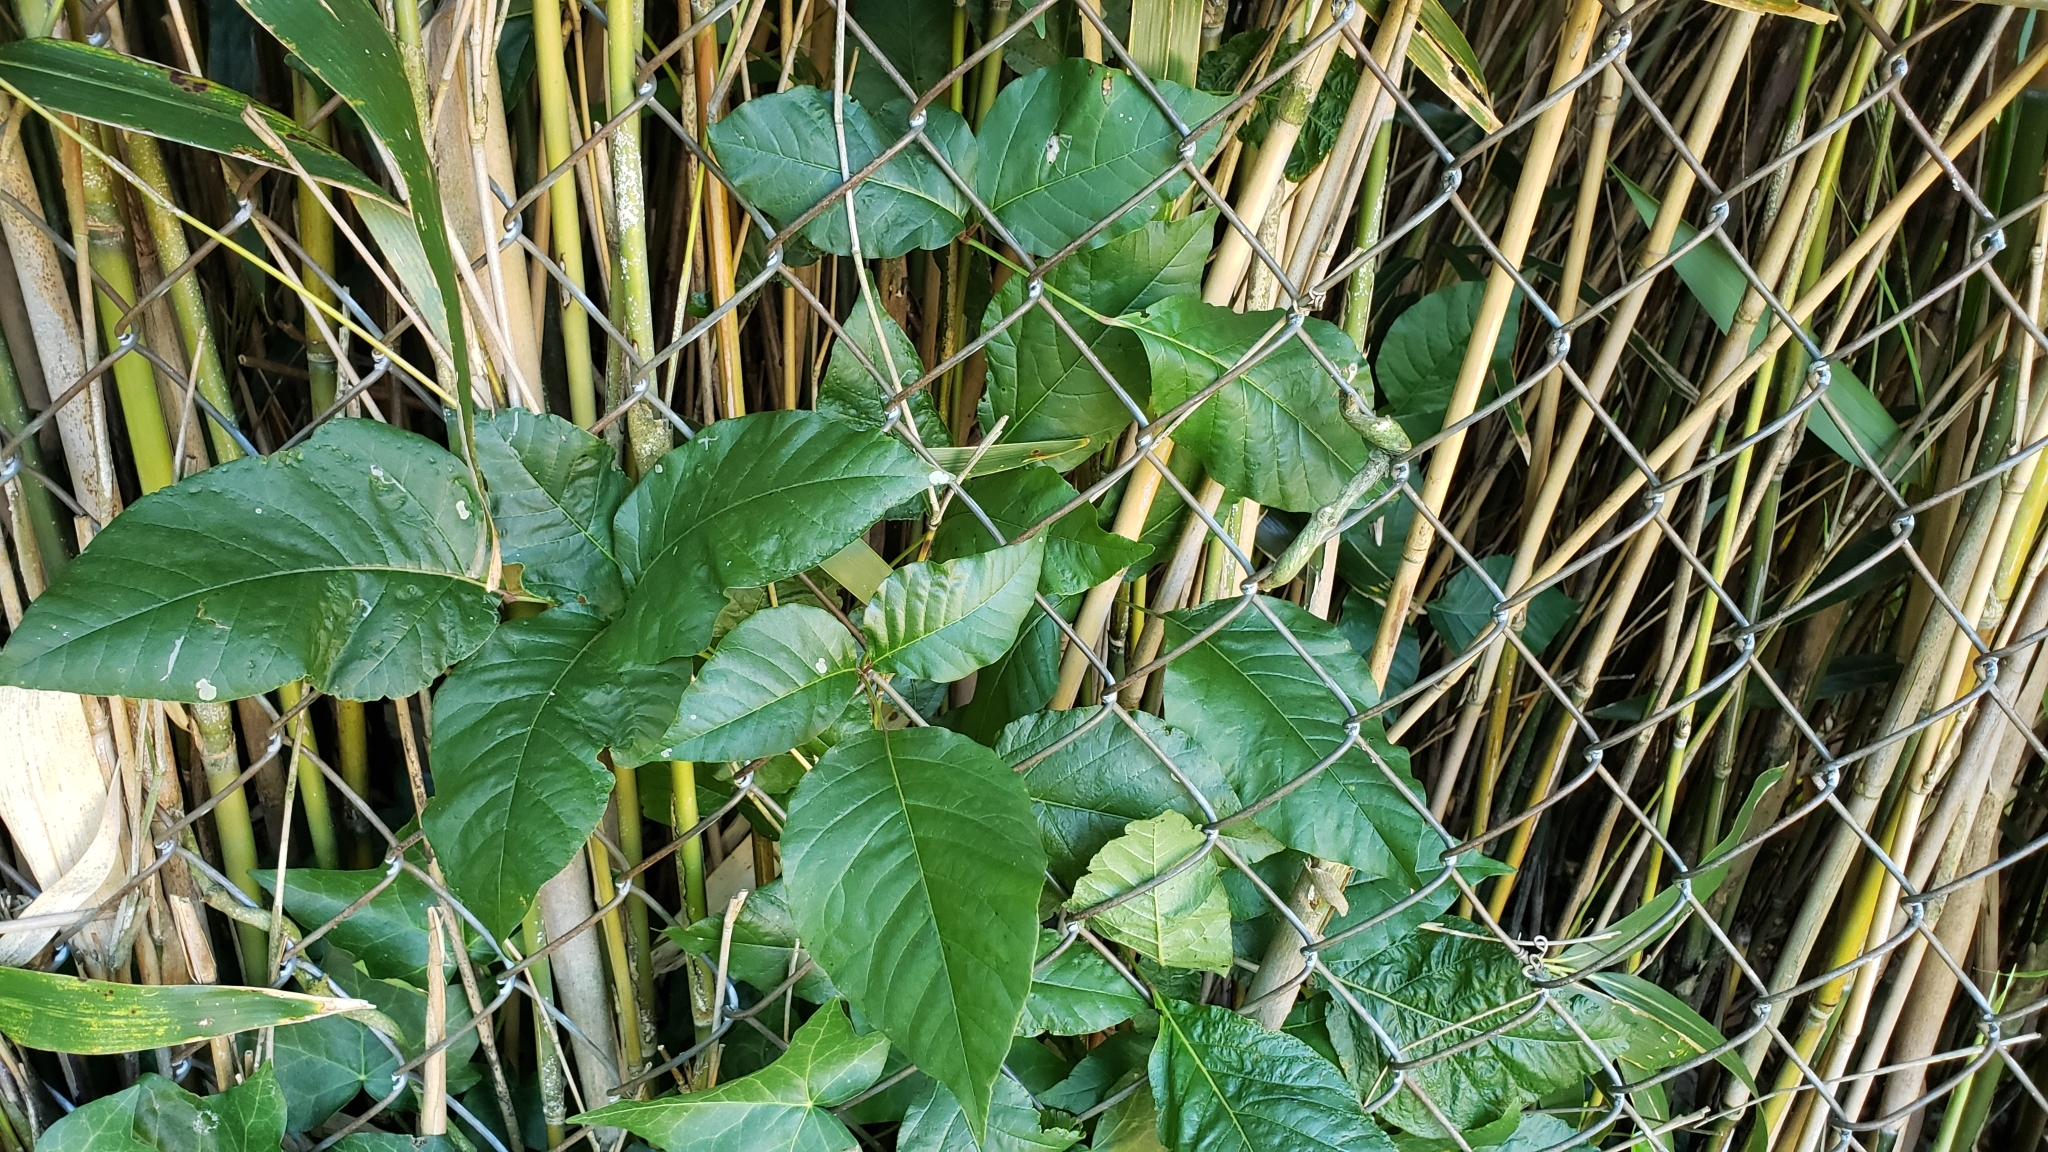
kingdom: Plantae
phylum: Tracheophyta
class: Magnoliopsida
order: Sapindales
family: Anacardiaceae
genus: Toxicodendron
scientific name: Toxicodendron radicans
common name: Poison ivy
